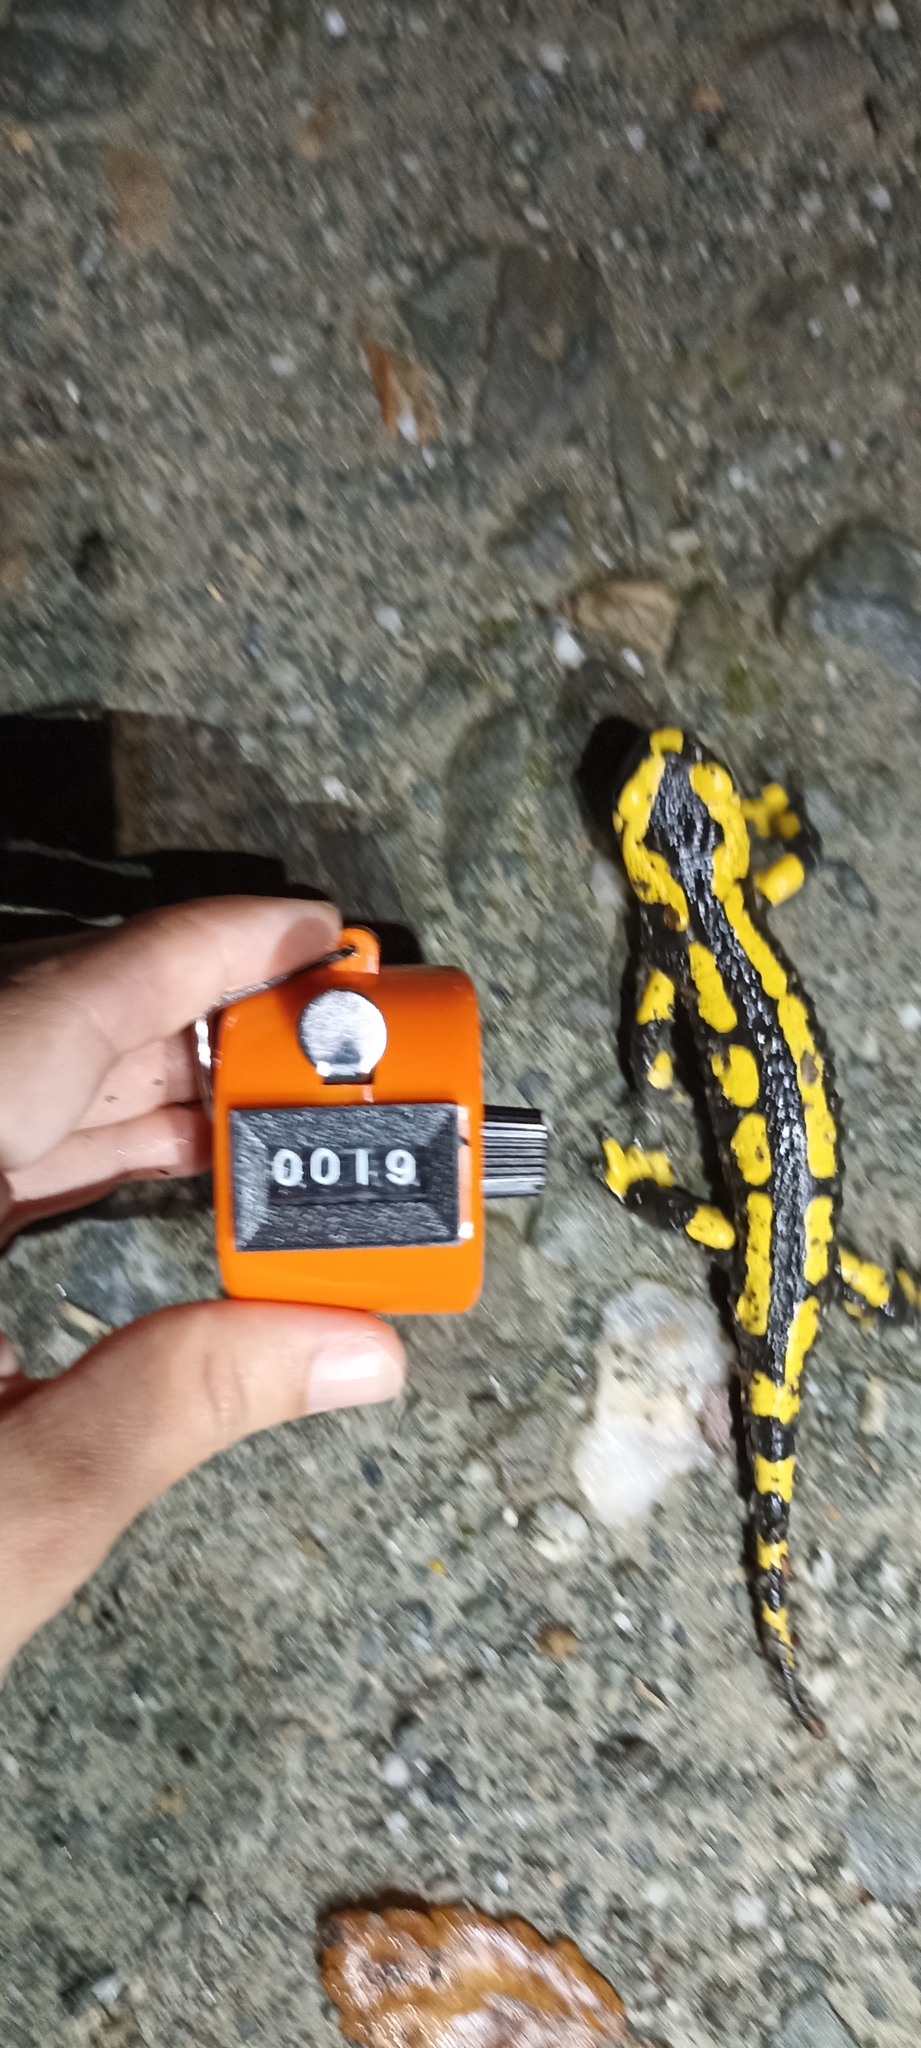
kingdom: Animalia
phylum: Chordata
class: Amphibia
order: Caudata
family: Salamandridae
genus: Salamandra
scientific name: Salamandra salamandra
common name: Fire salamander
